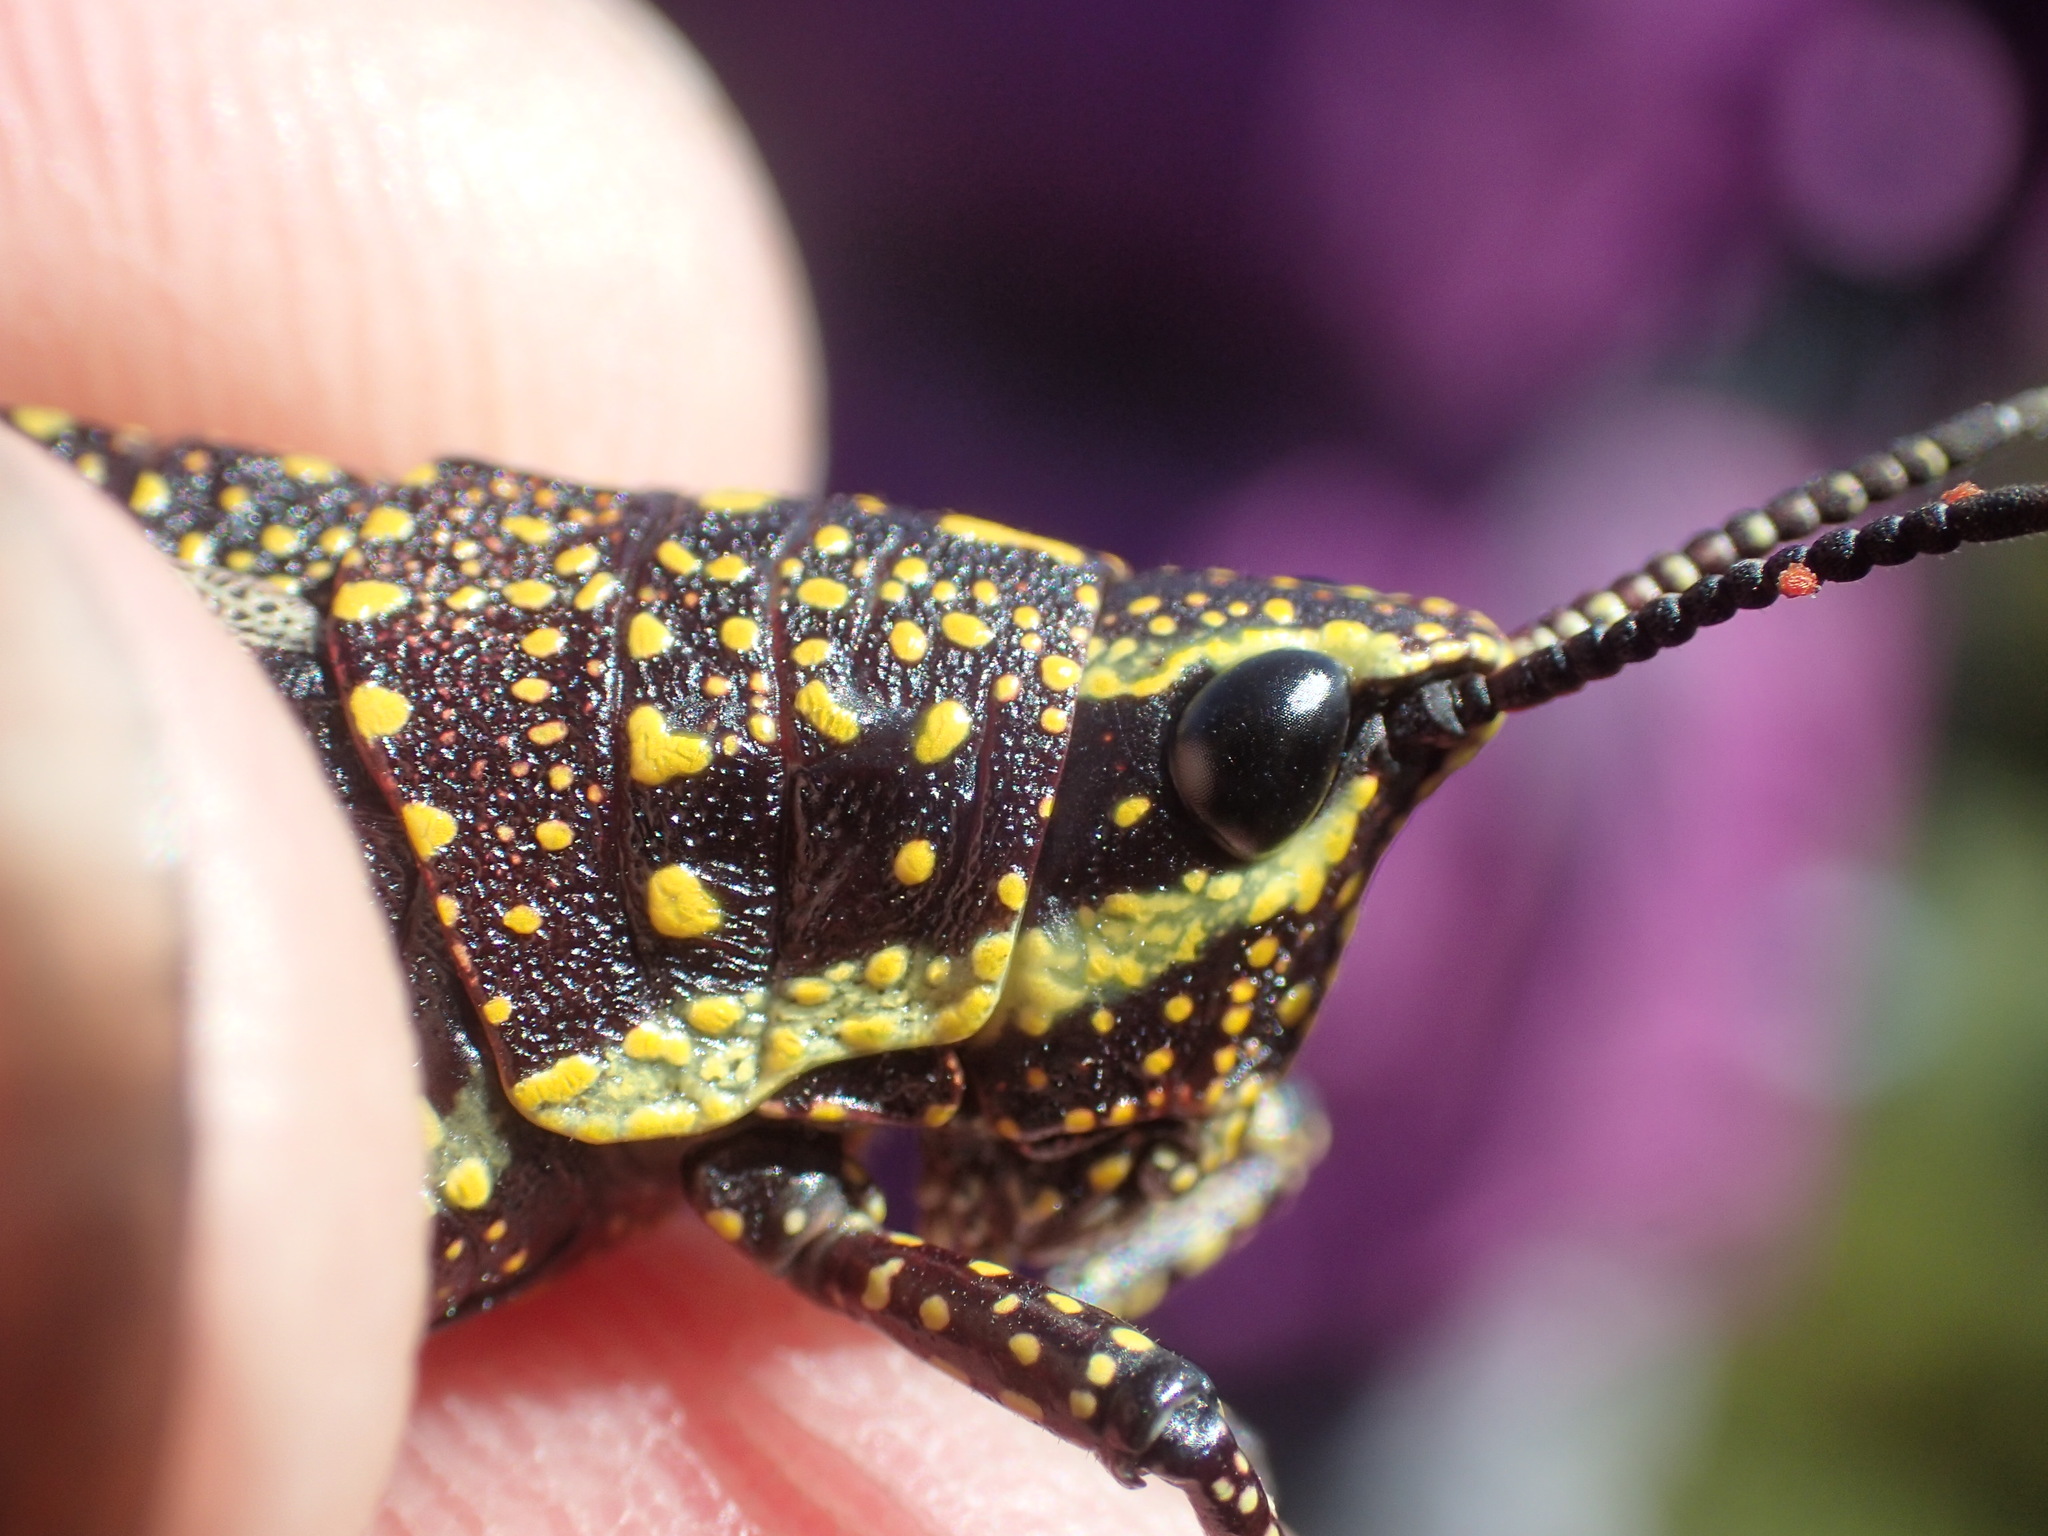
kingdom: Animalia
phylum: Arthropoda
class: Insecta
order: Orthoptera
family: Pyrgomorphidae
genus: Monistria
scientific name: Monistria concinna
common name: Southern pyrgomorph
